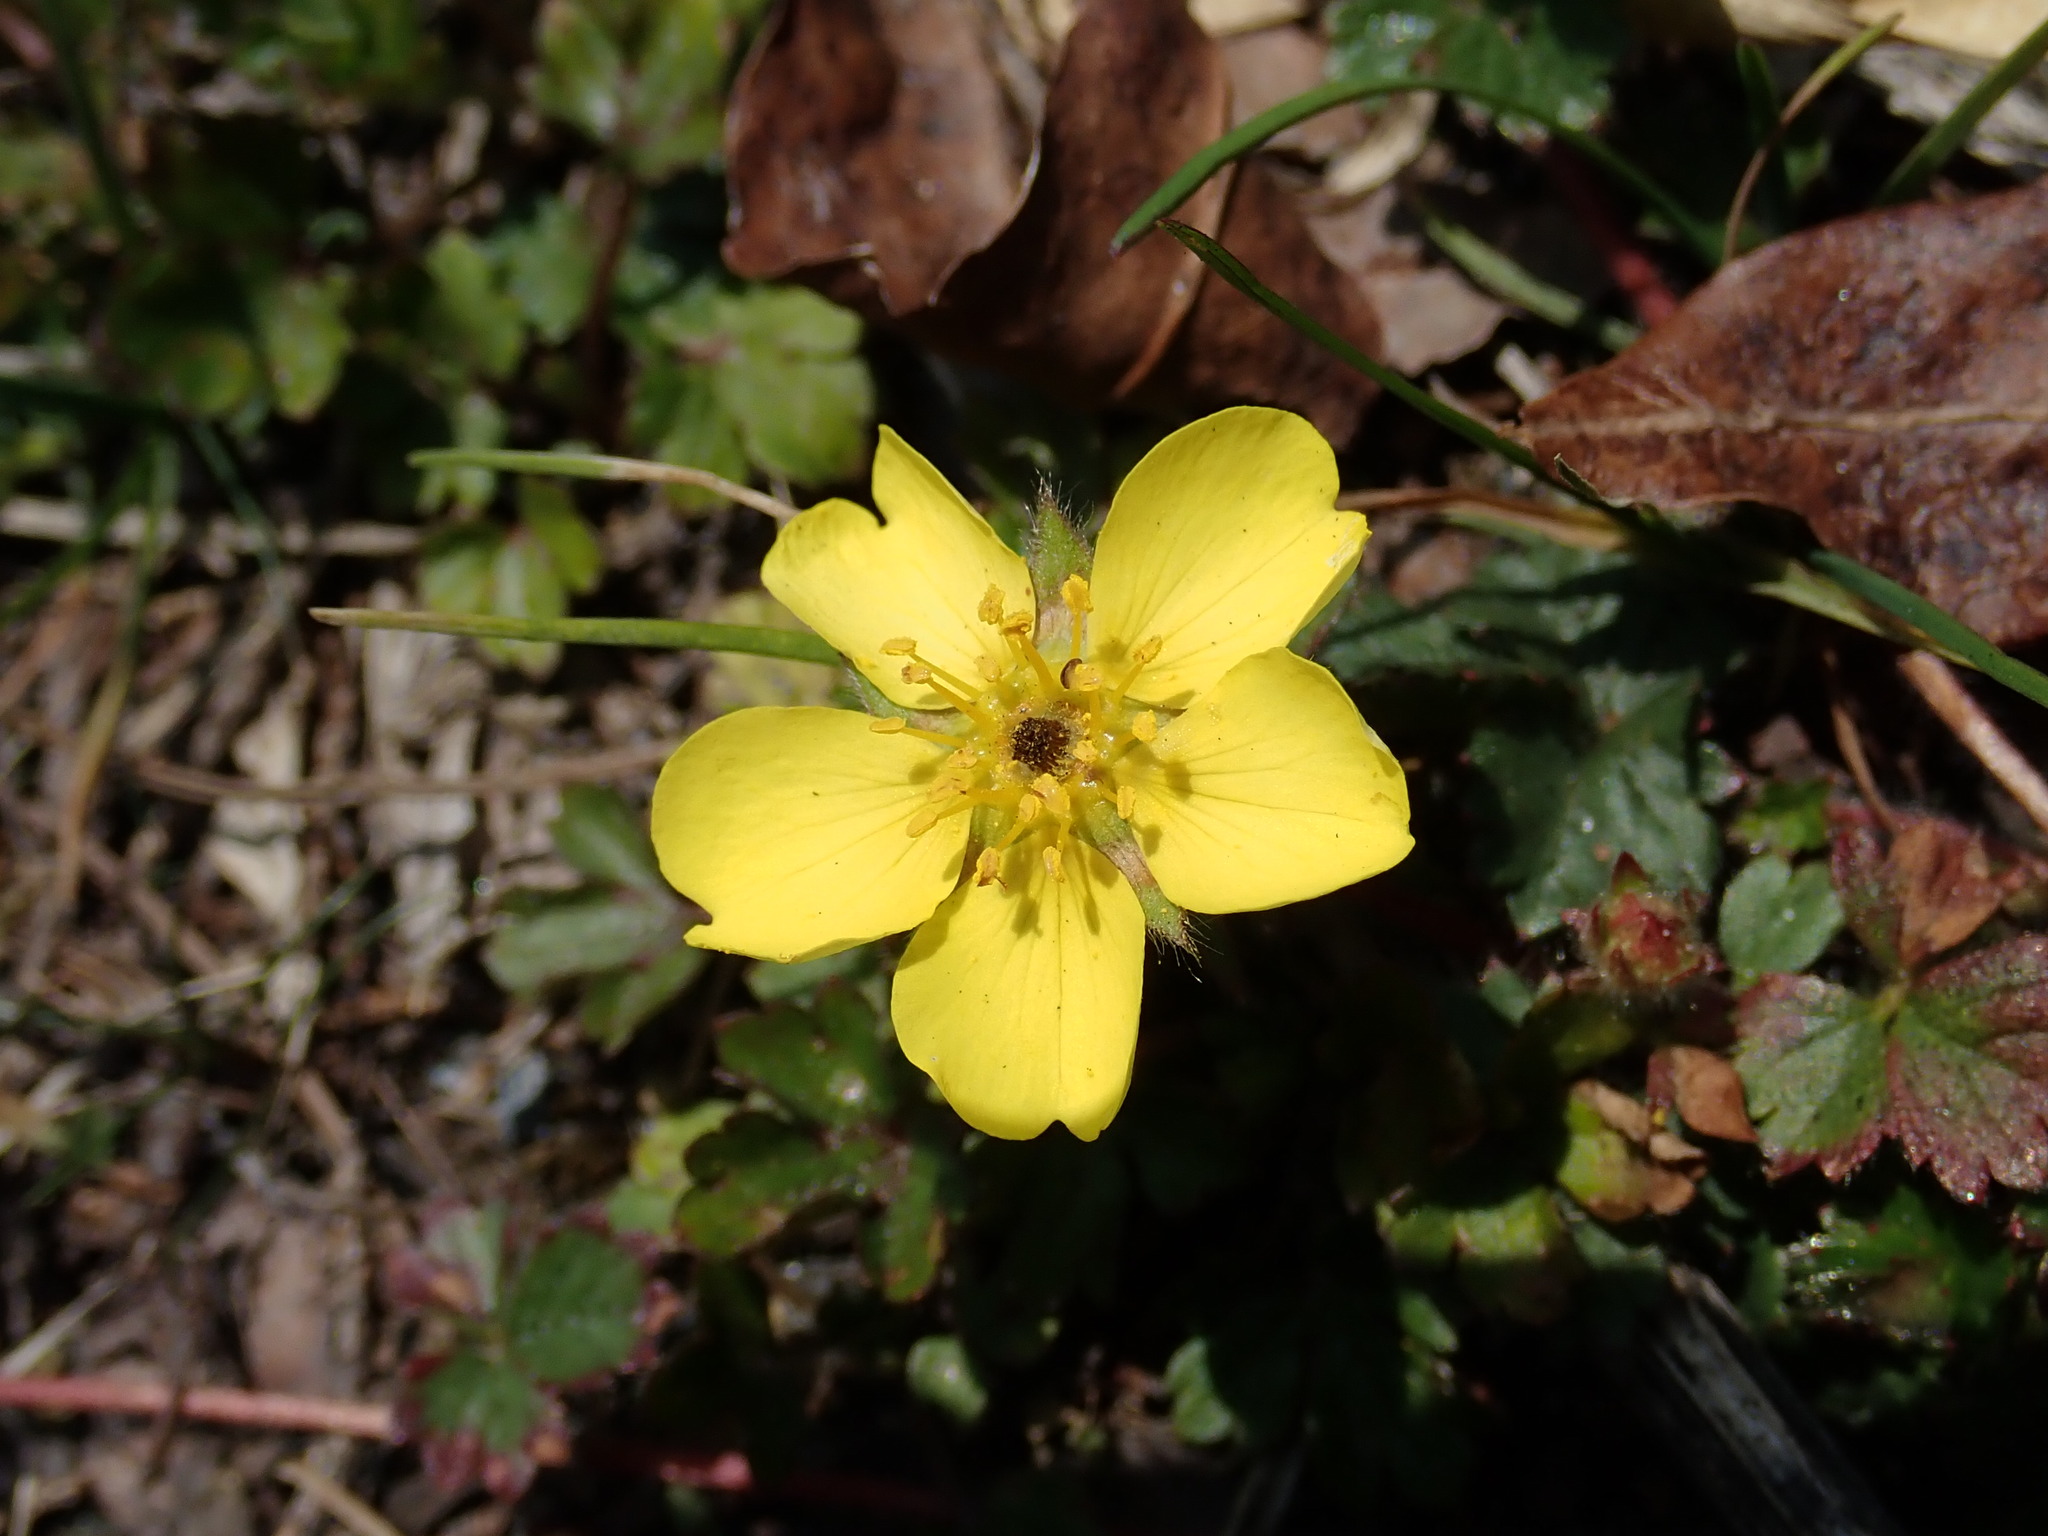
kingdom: Plantae
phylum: Tracheophyta
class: Magnoliopsida
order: Rosales
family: Rosaceae
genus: Potentilla
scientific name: Potentilla matsumurae
